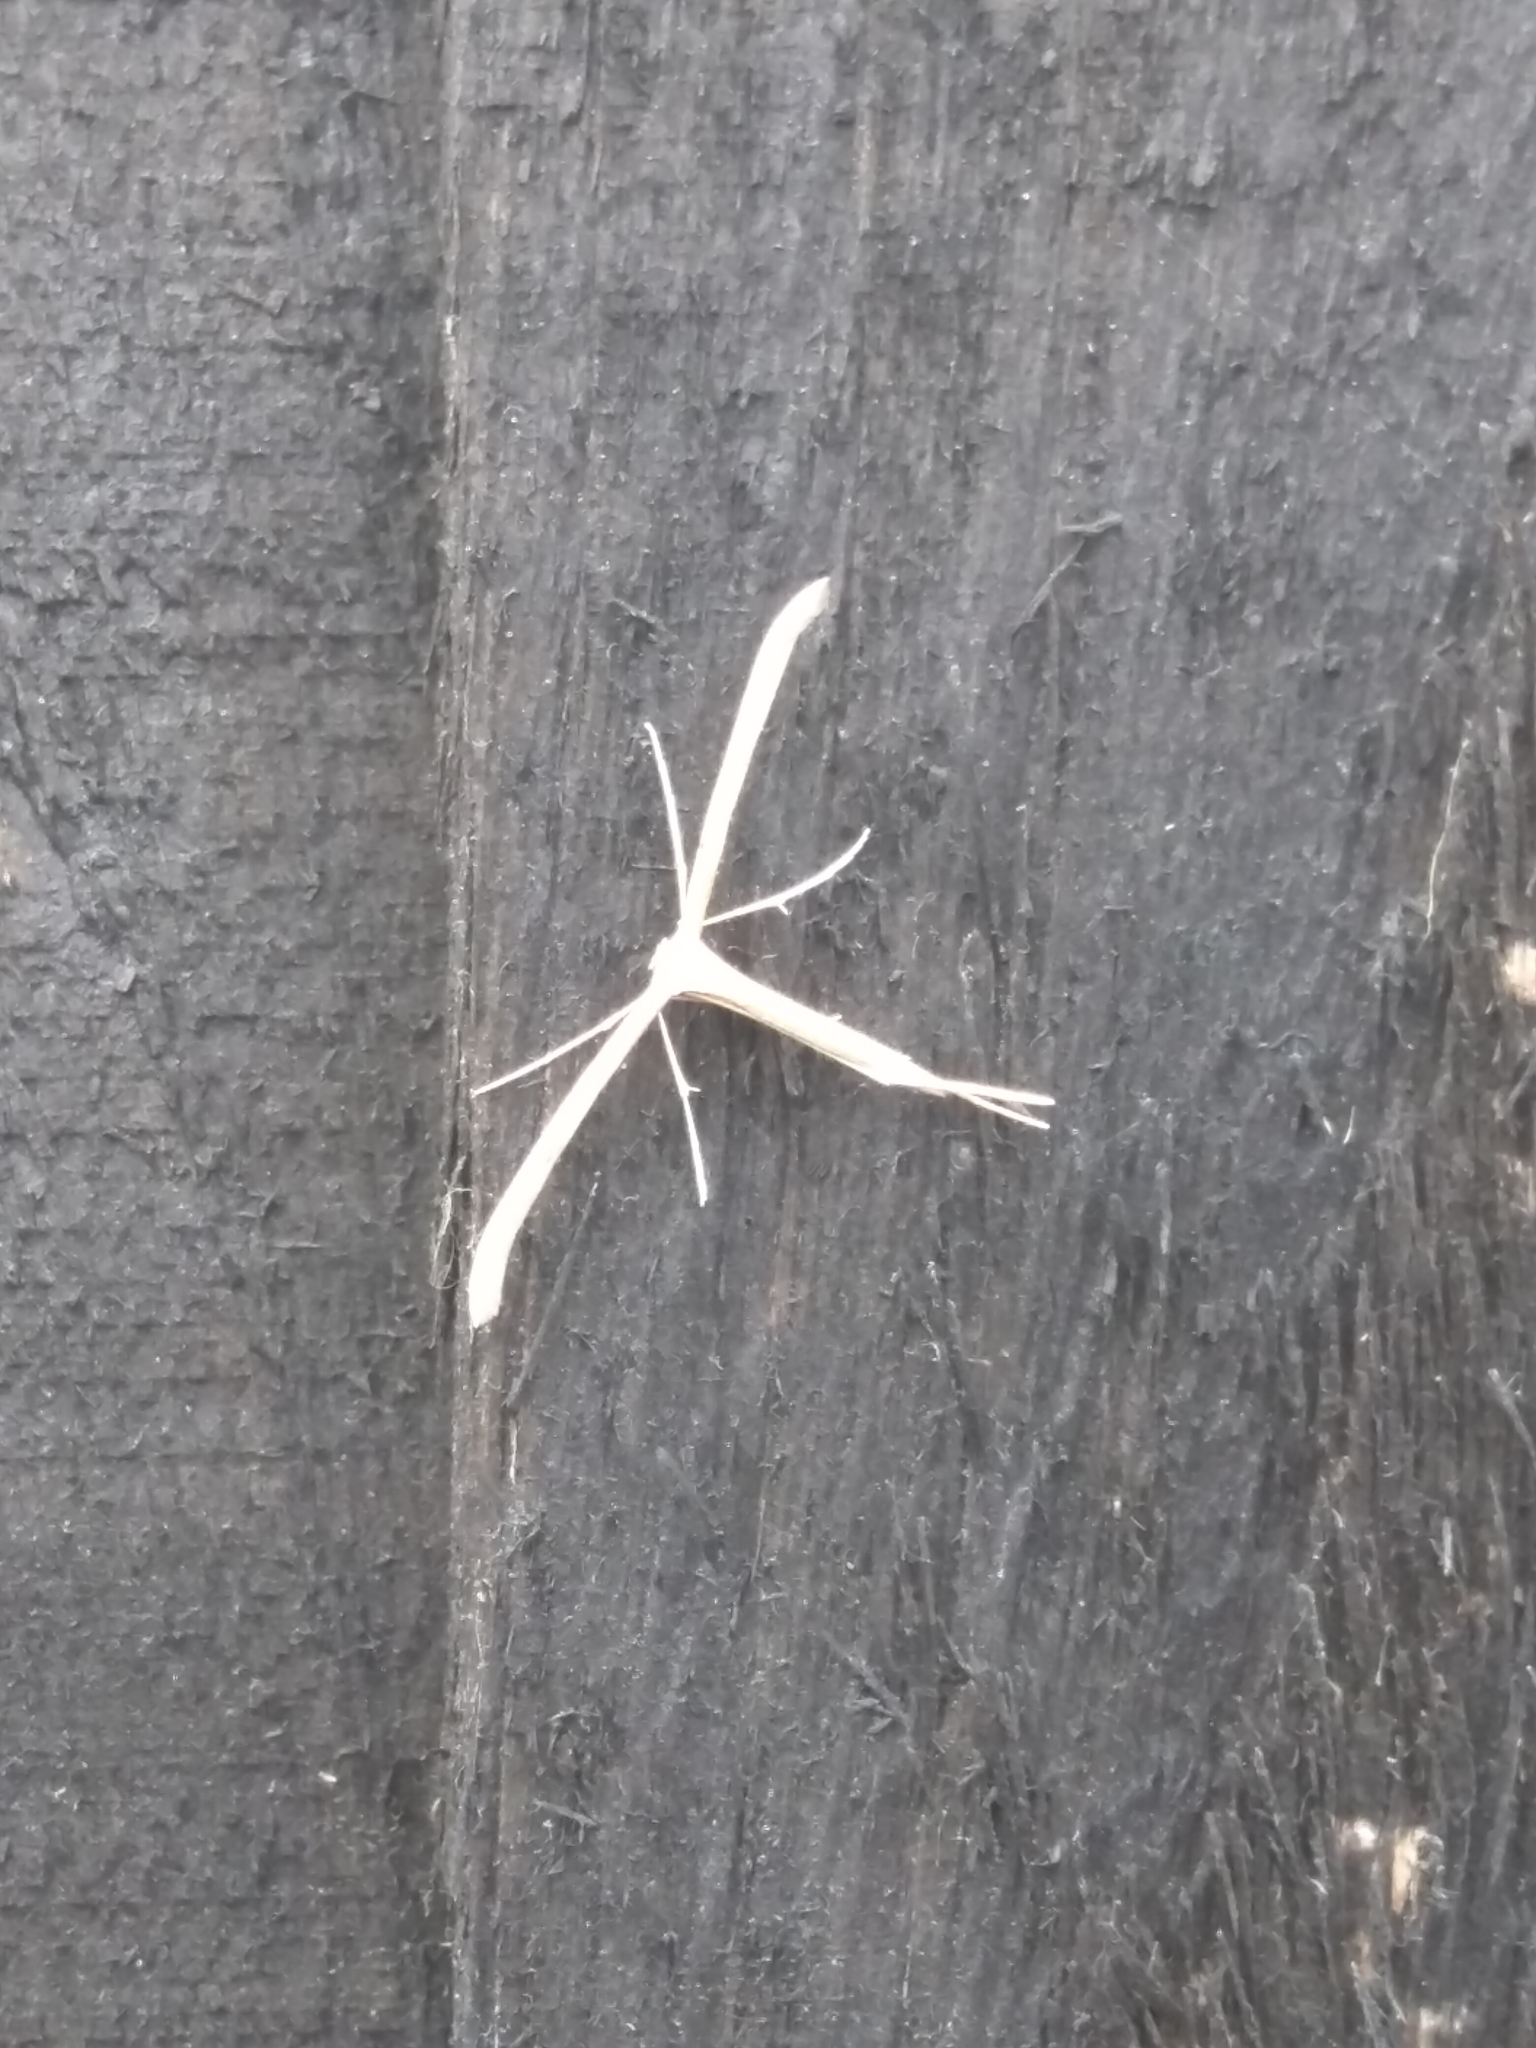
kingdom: Animalia
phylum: Arthropoda
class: Insecta
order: Lepidoptera
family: Pterophoridae
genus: Emmelina
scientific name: Emmelina monodactyla
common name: Common plume
